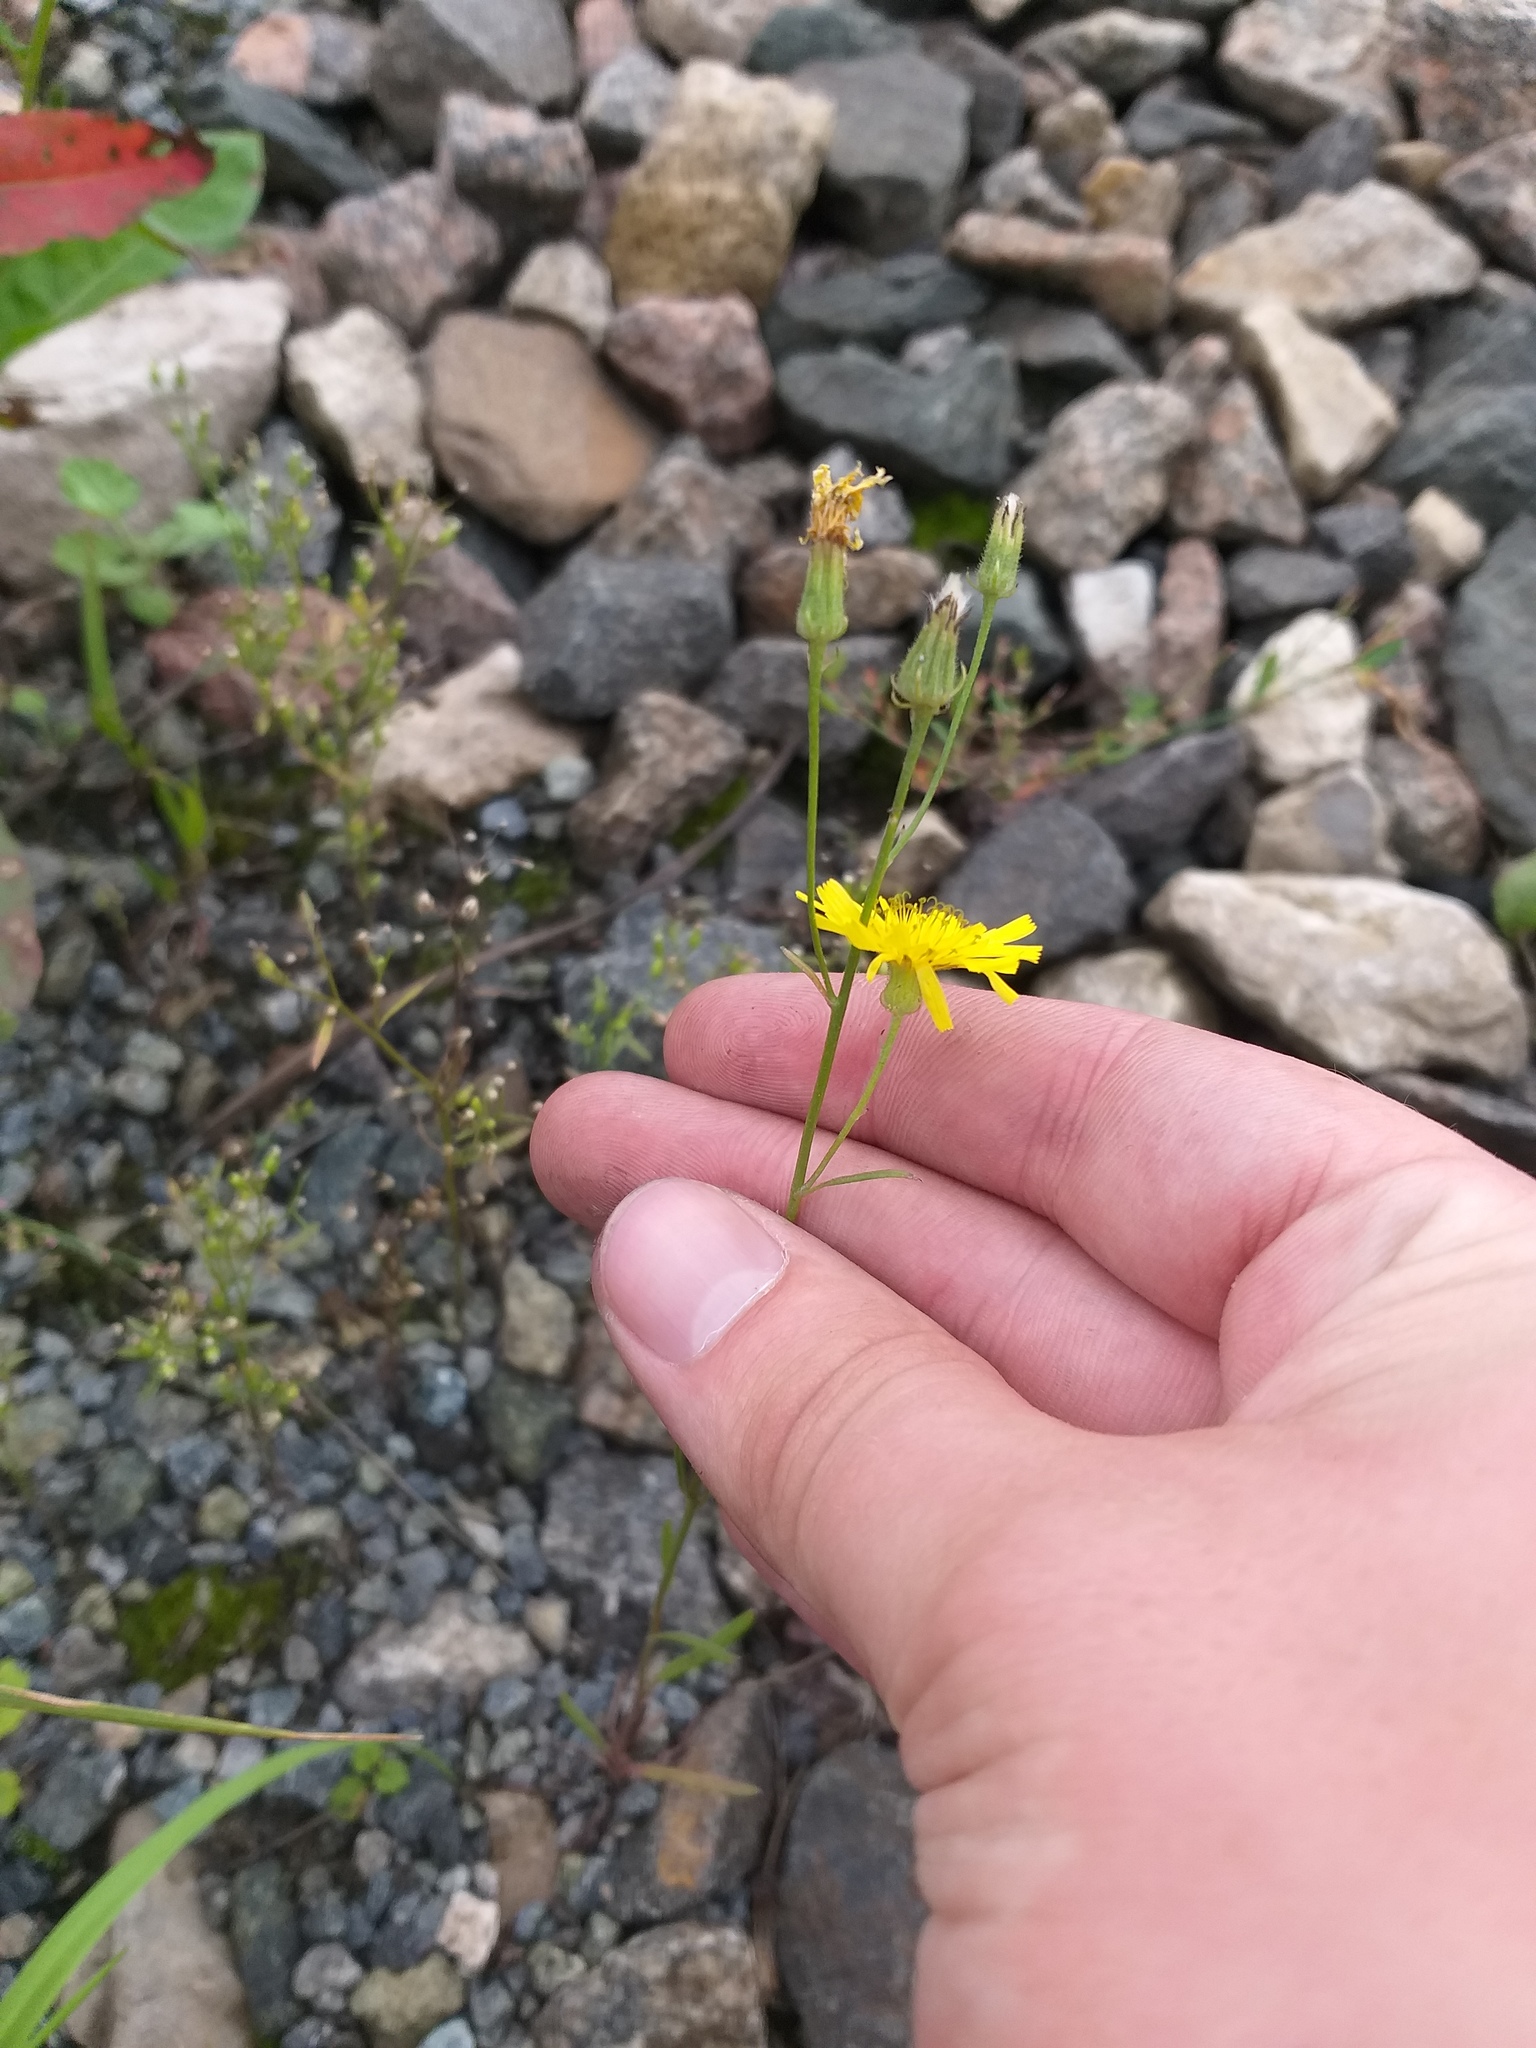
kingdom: Plantae
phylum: Tracheophyta
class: Magnoliopsida
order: Asterales
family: Asteraceae
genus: Crepis
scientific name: Crepis tectorum
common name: Narrow-leaved hawk's-beard
